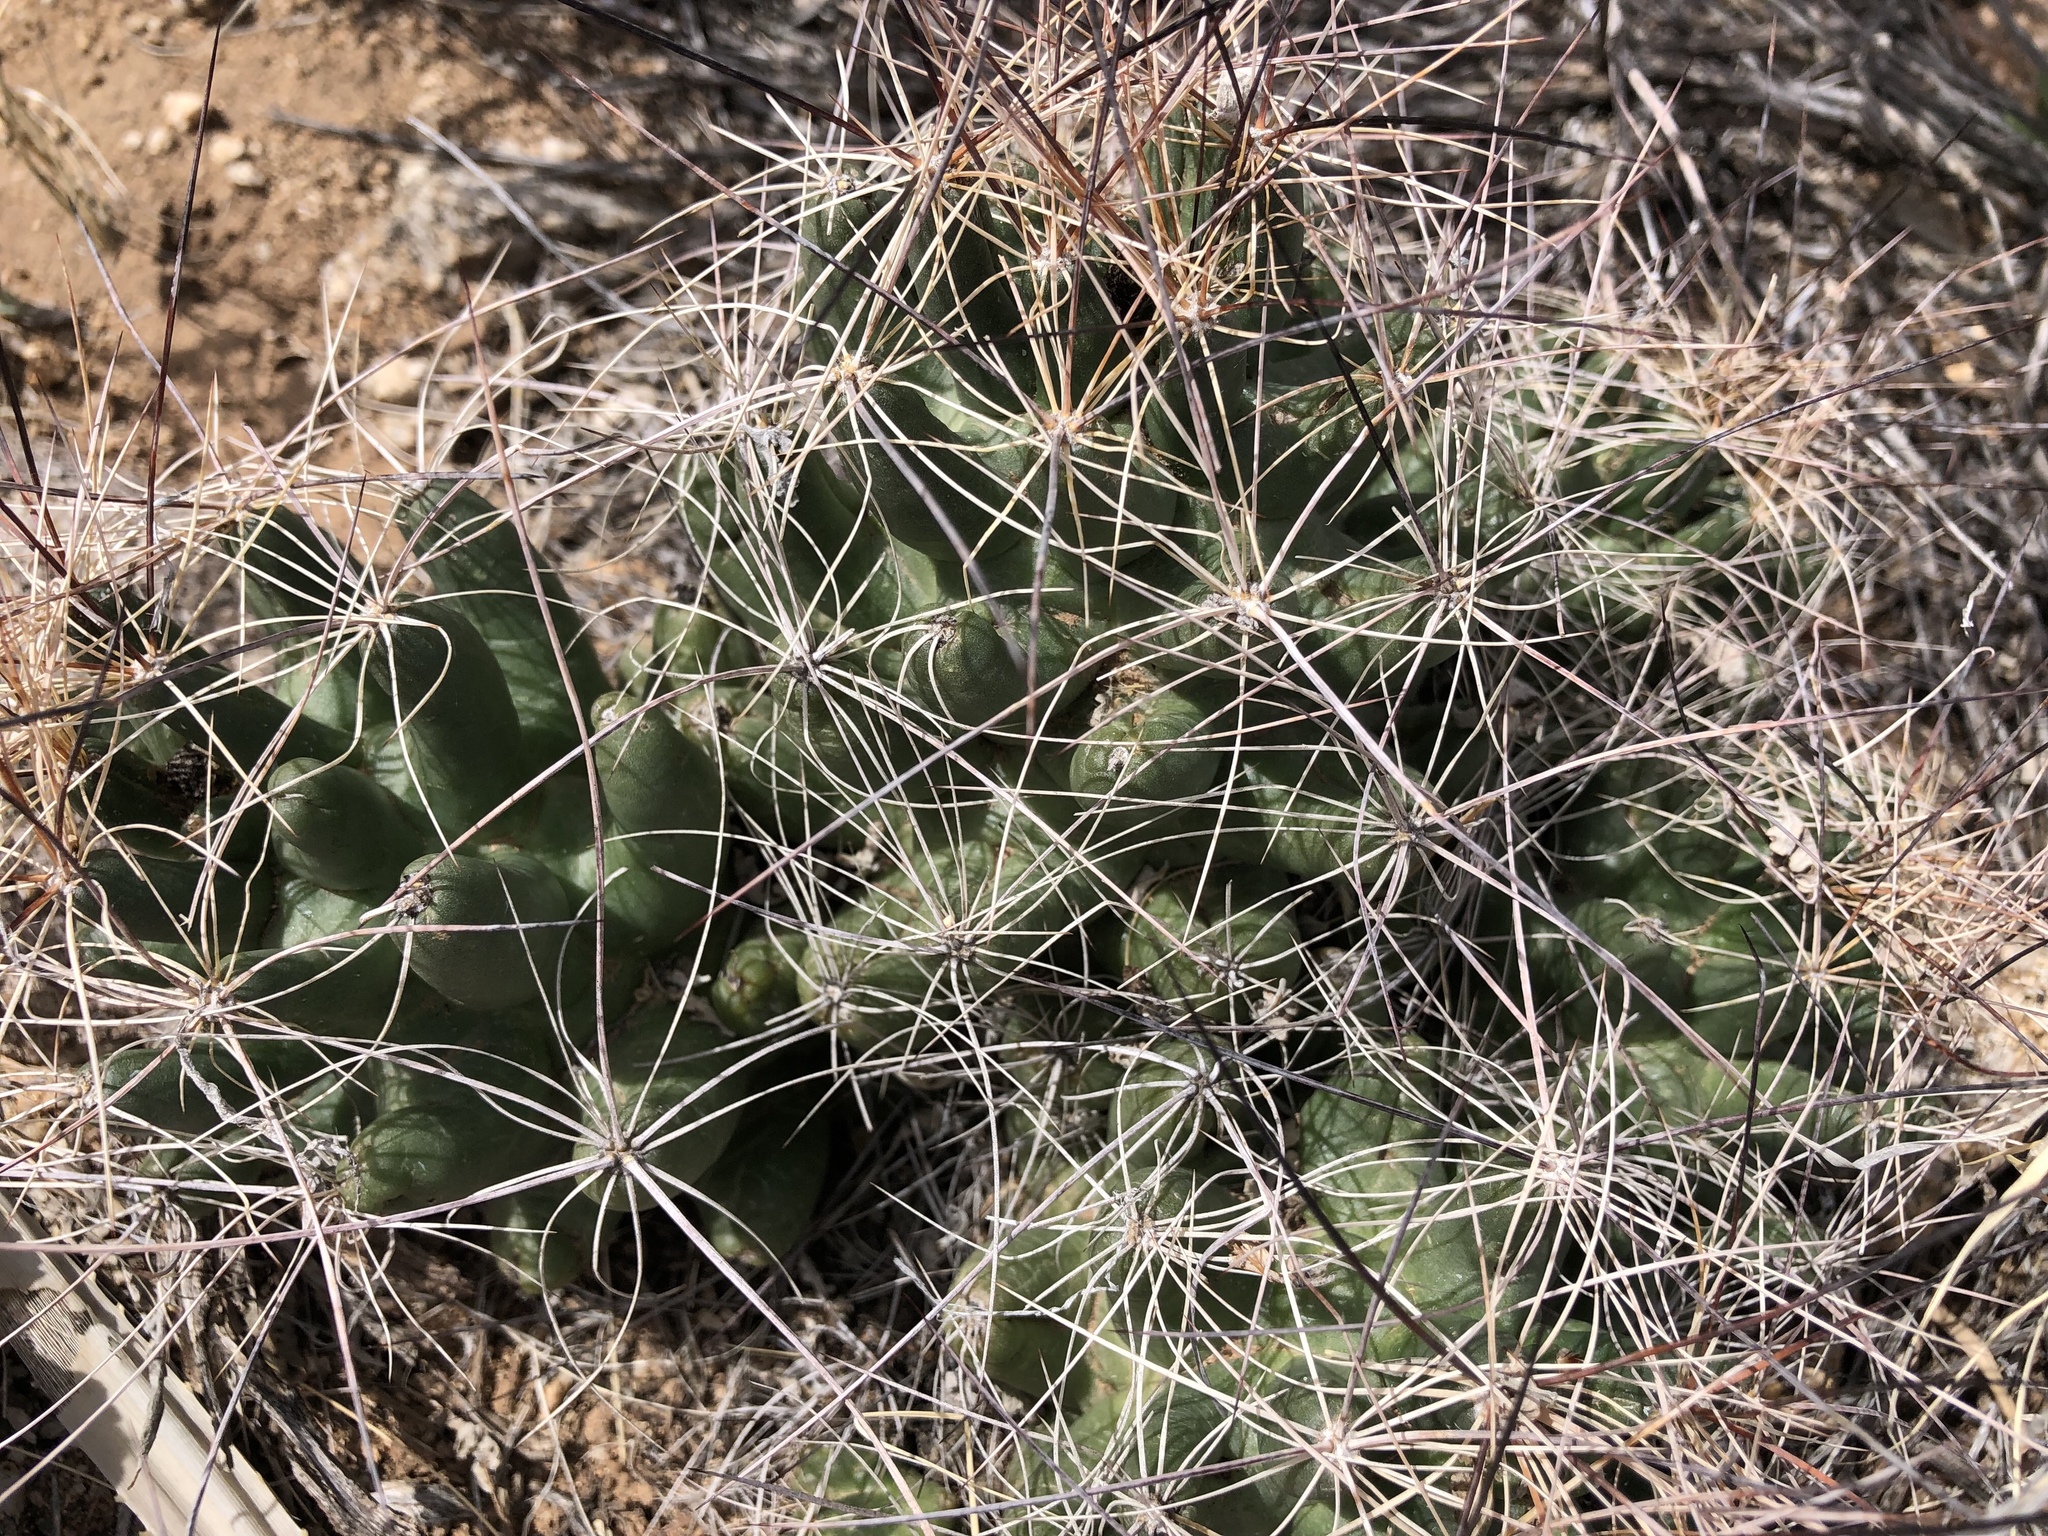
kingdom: Plantae
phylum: Tracheophyta
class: Magnoliopsida
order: Caryophyllales
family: Cactaceae
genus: Coryphantha
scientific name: Coryphantha macromeris
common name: Nipple beehive cactus
